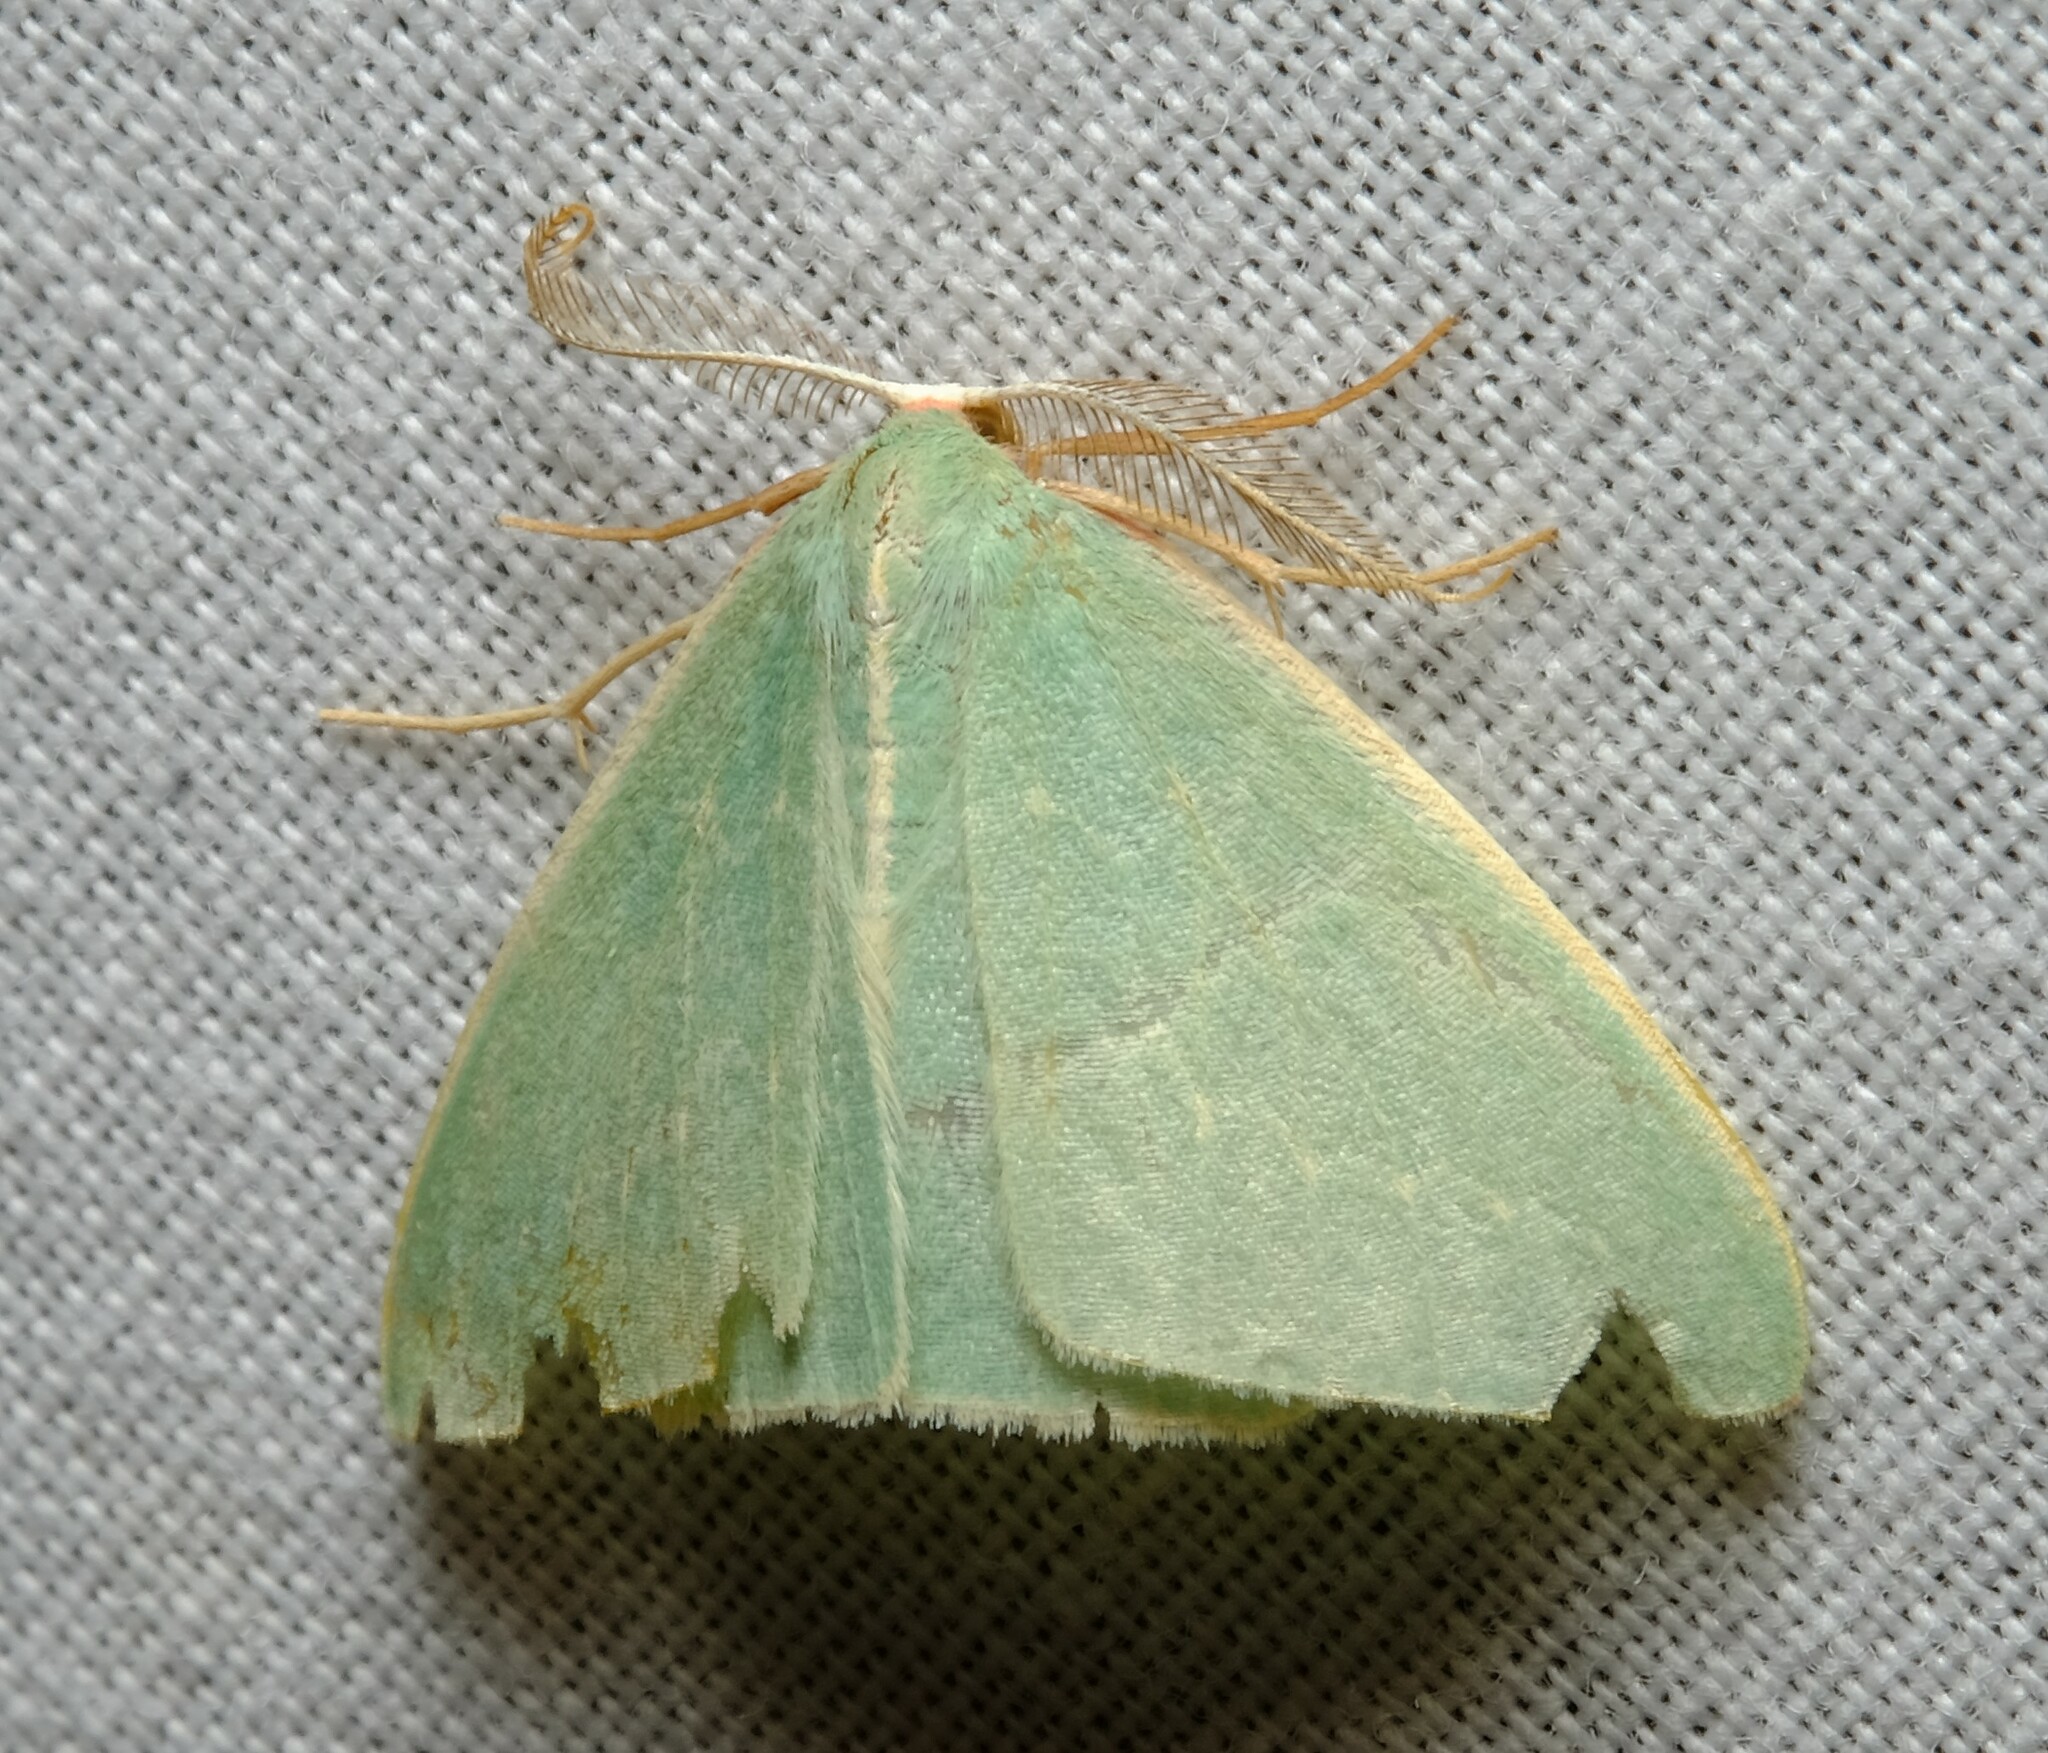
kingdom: Animalia
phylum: Arthropoda
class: Insecta
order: Lepidoptera
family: Geometridae
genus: Chlorocoma
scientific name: Chlorocoma melocrossa
